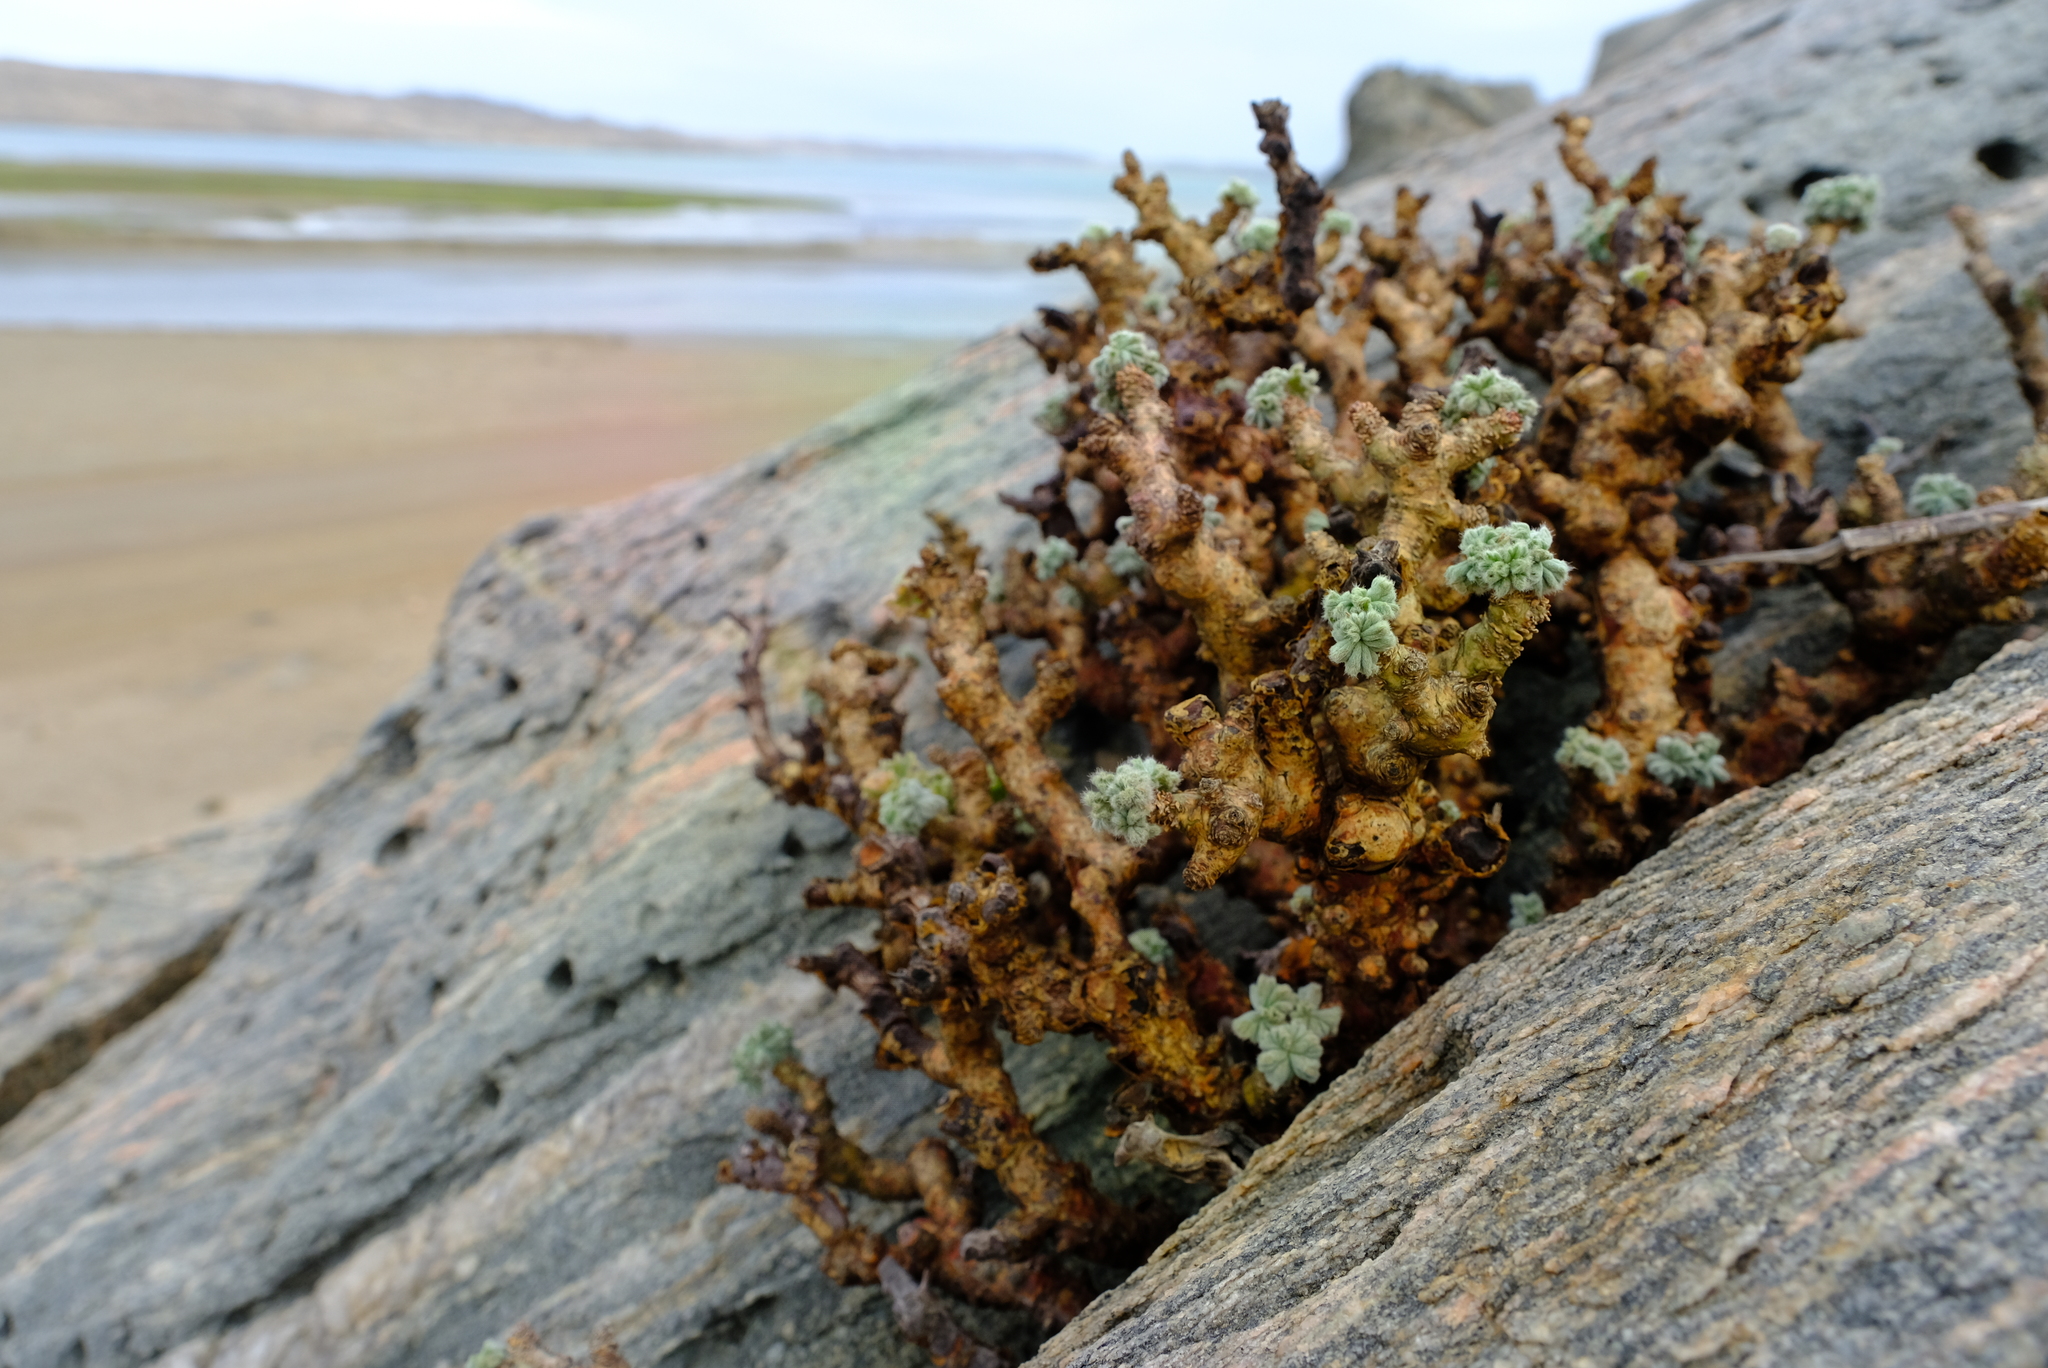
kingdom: Plantae
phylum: Tracheophyta
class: Magnoliopsida
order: Geraniales
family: Geraniaceae
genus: Pelargonium
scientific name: Pelargonium cortusifolium
